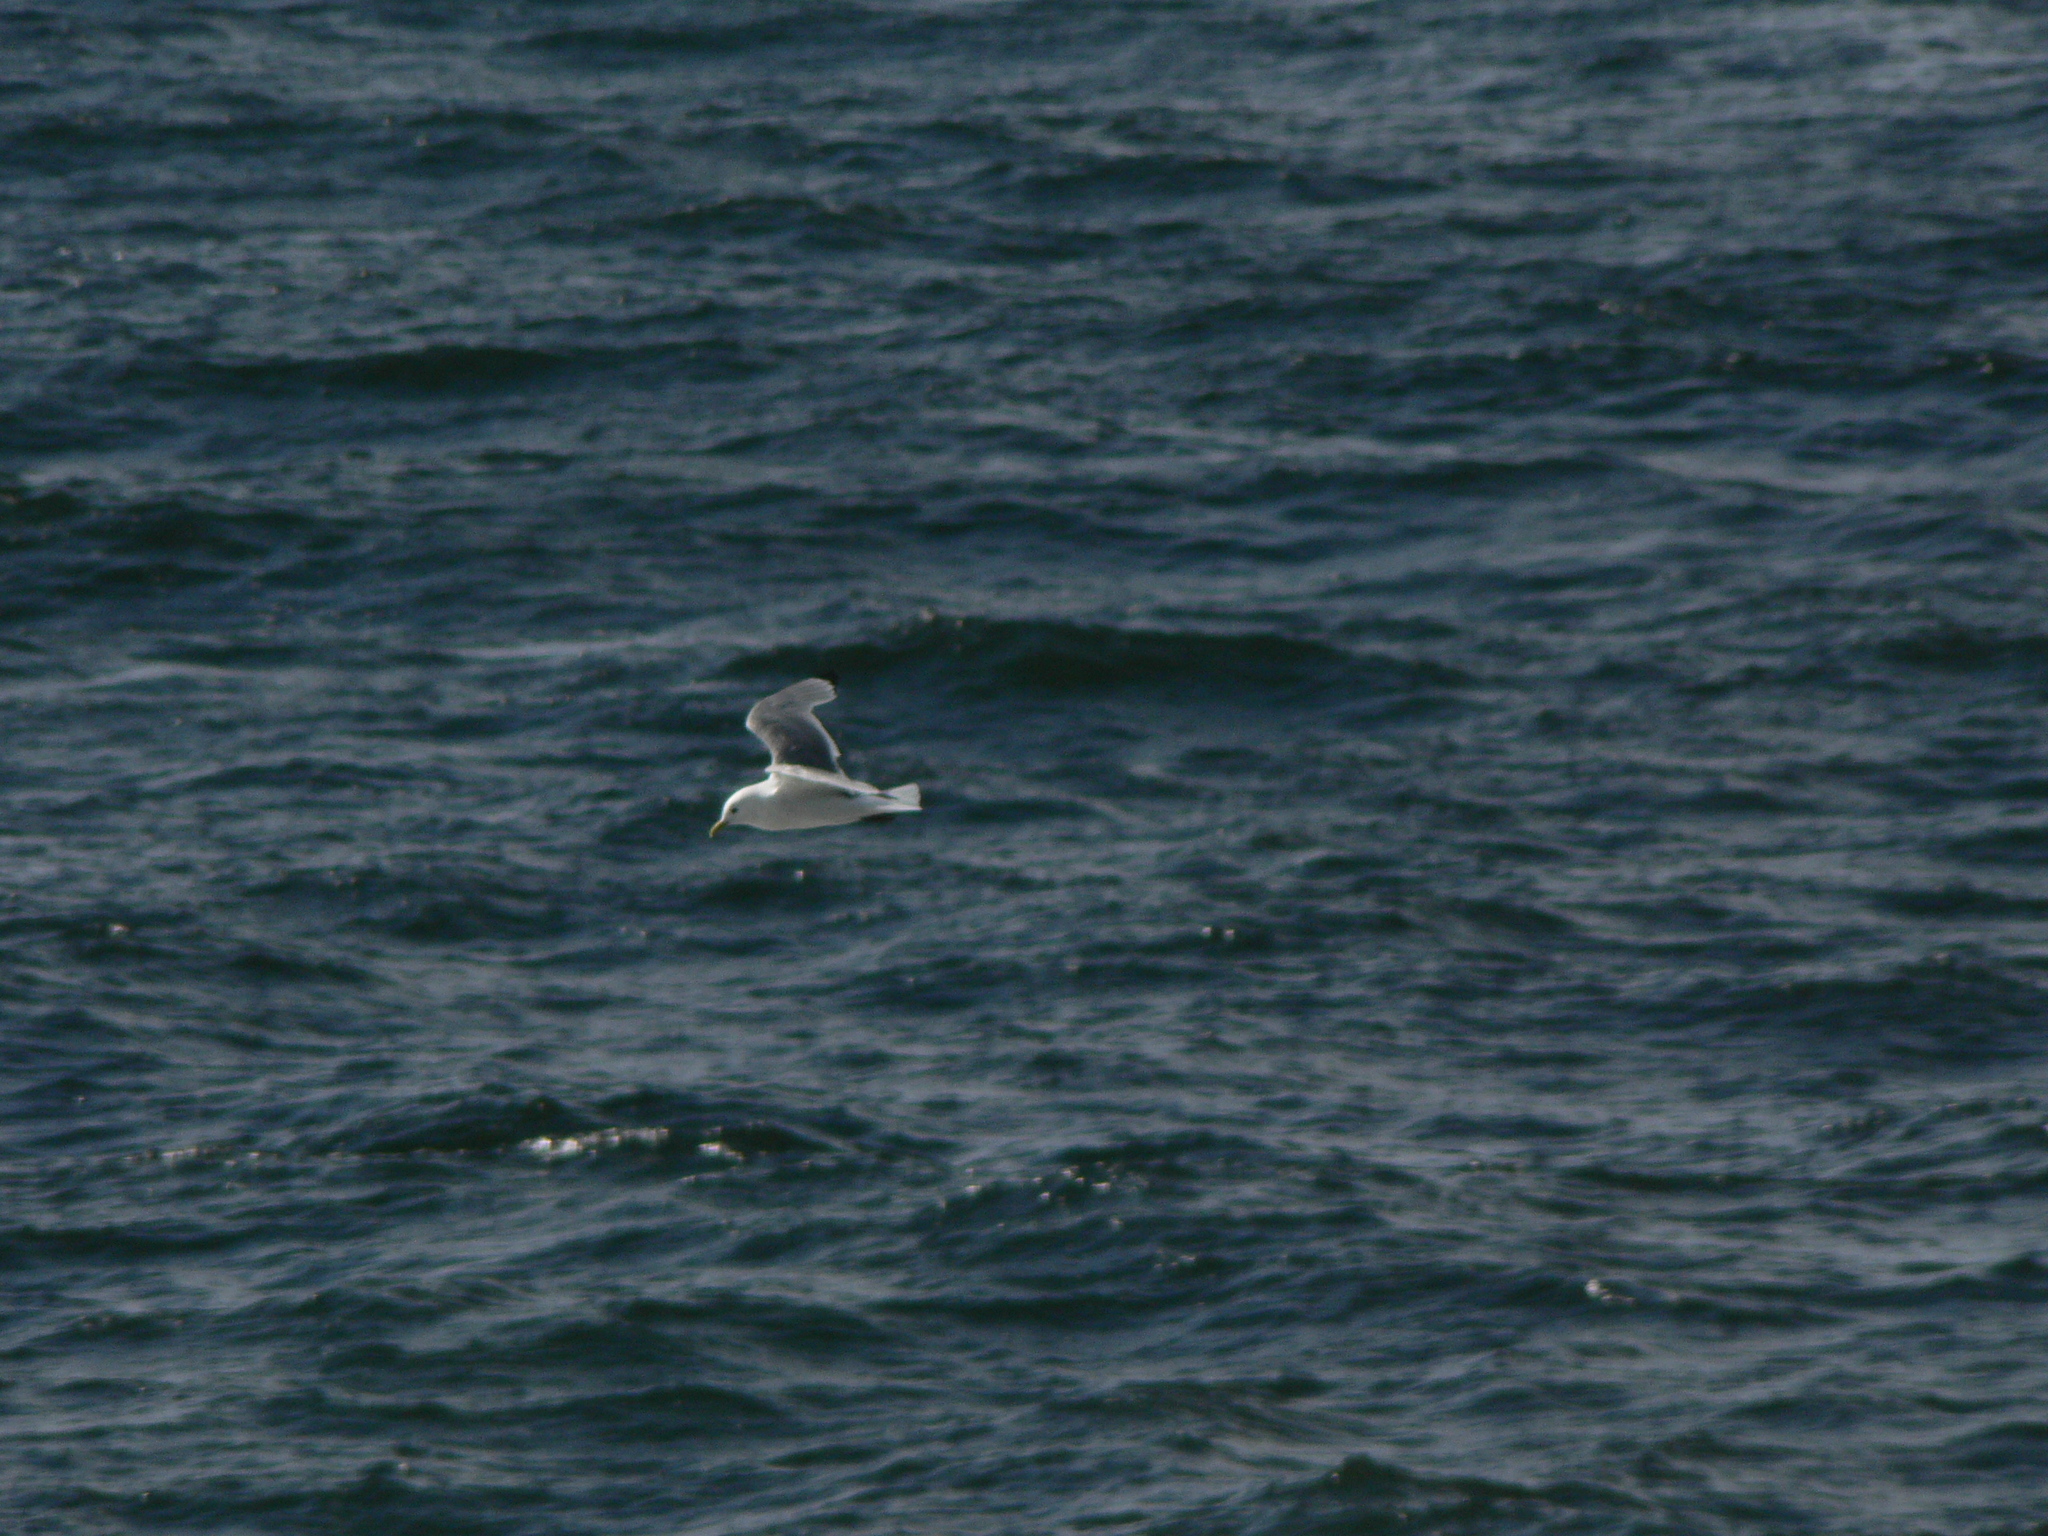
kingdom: Animalia
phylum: Chordata
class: Aves
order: Charadriiformes
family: Laridae
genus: Rissa
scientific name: Rissa tridactyla
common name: Black-legged kittiwake
